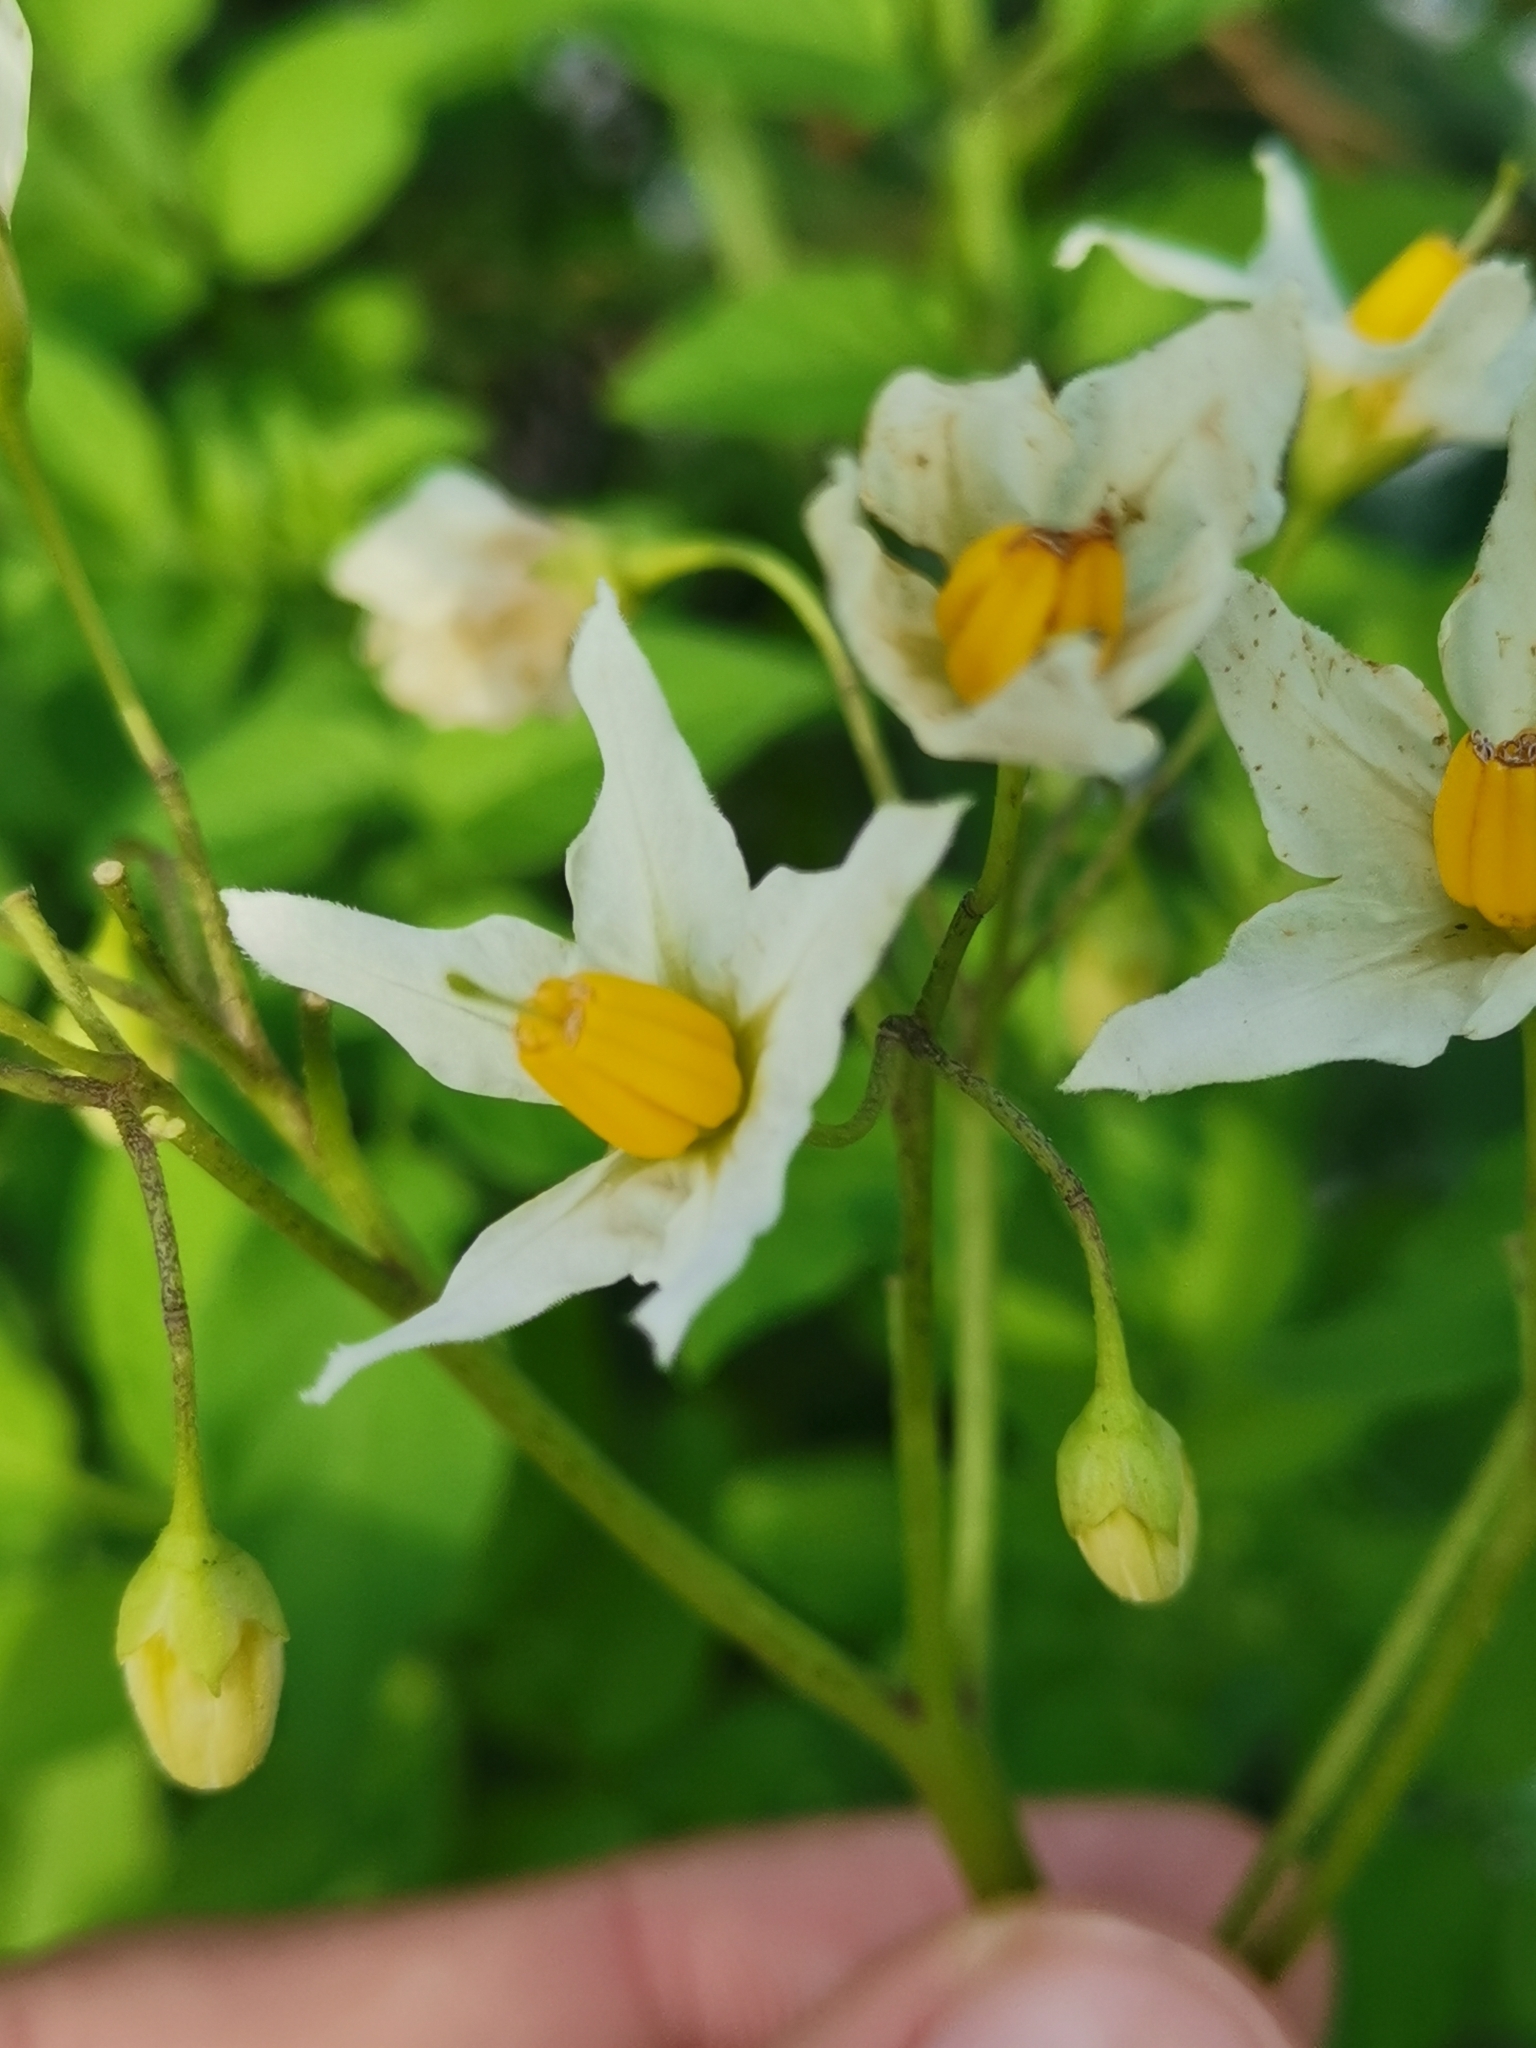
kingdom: Plantae
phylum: Tracheophyta
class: Magnoliopsida
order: Solanales
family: Solanaceae
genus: Solanum
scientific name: Solanum chacoense
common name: Chaco potato
